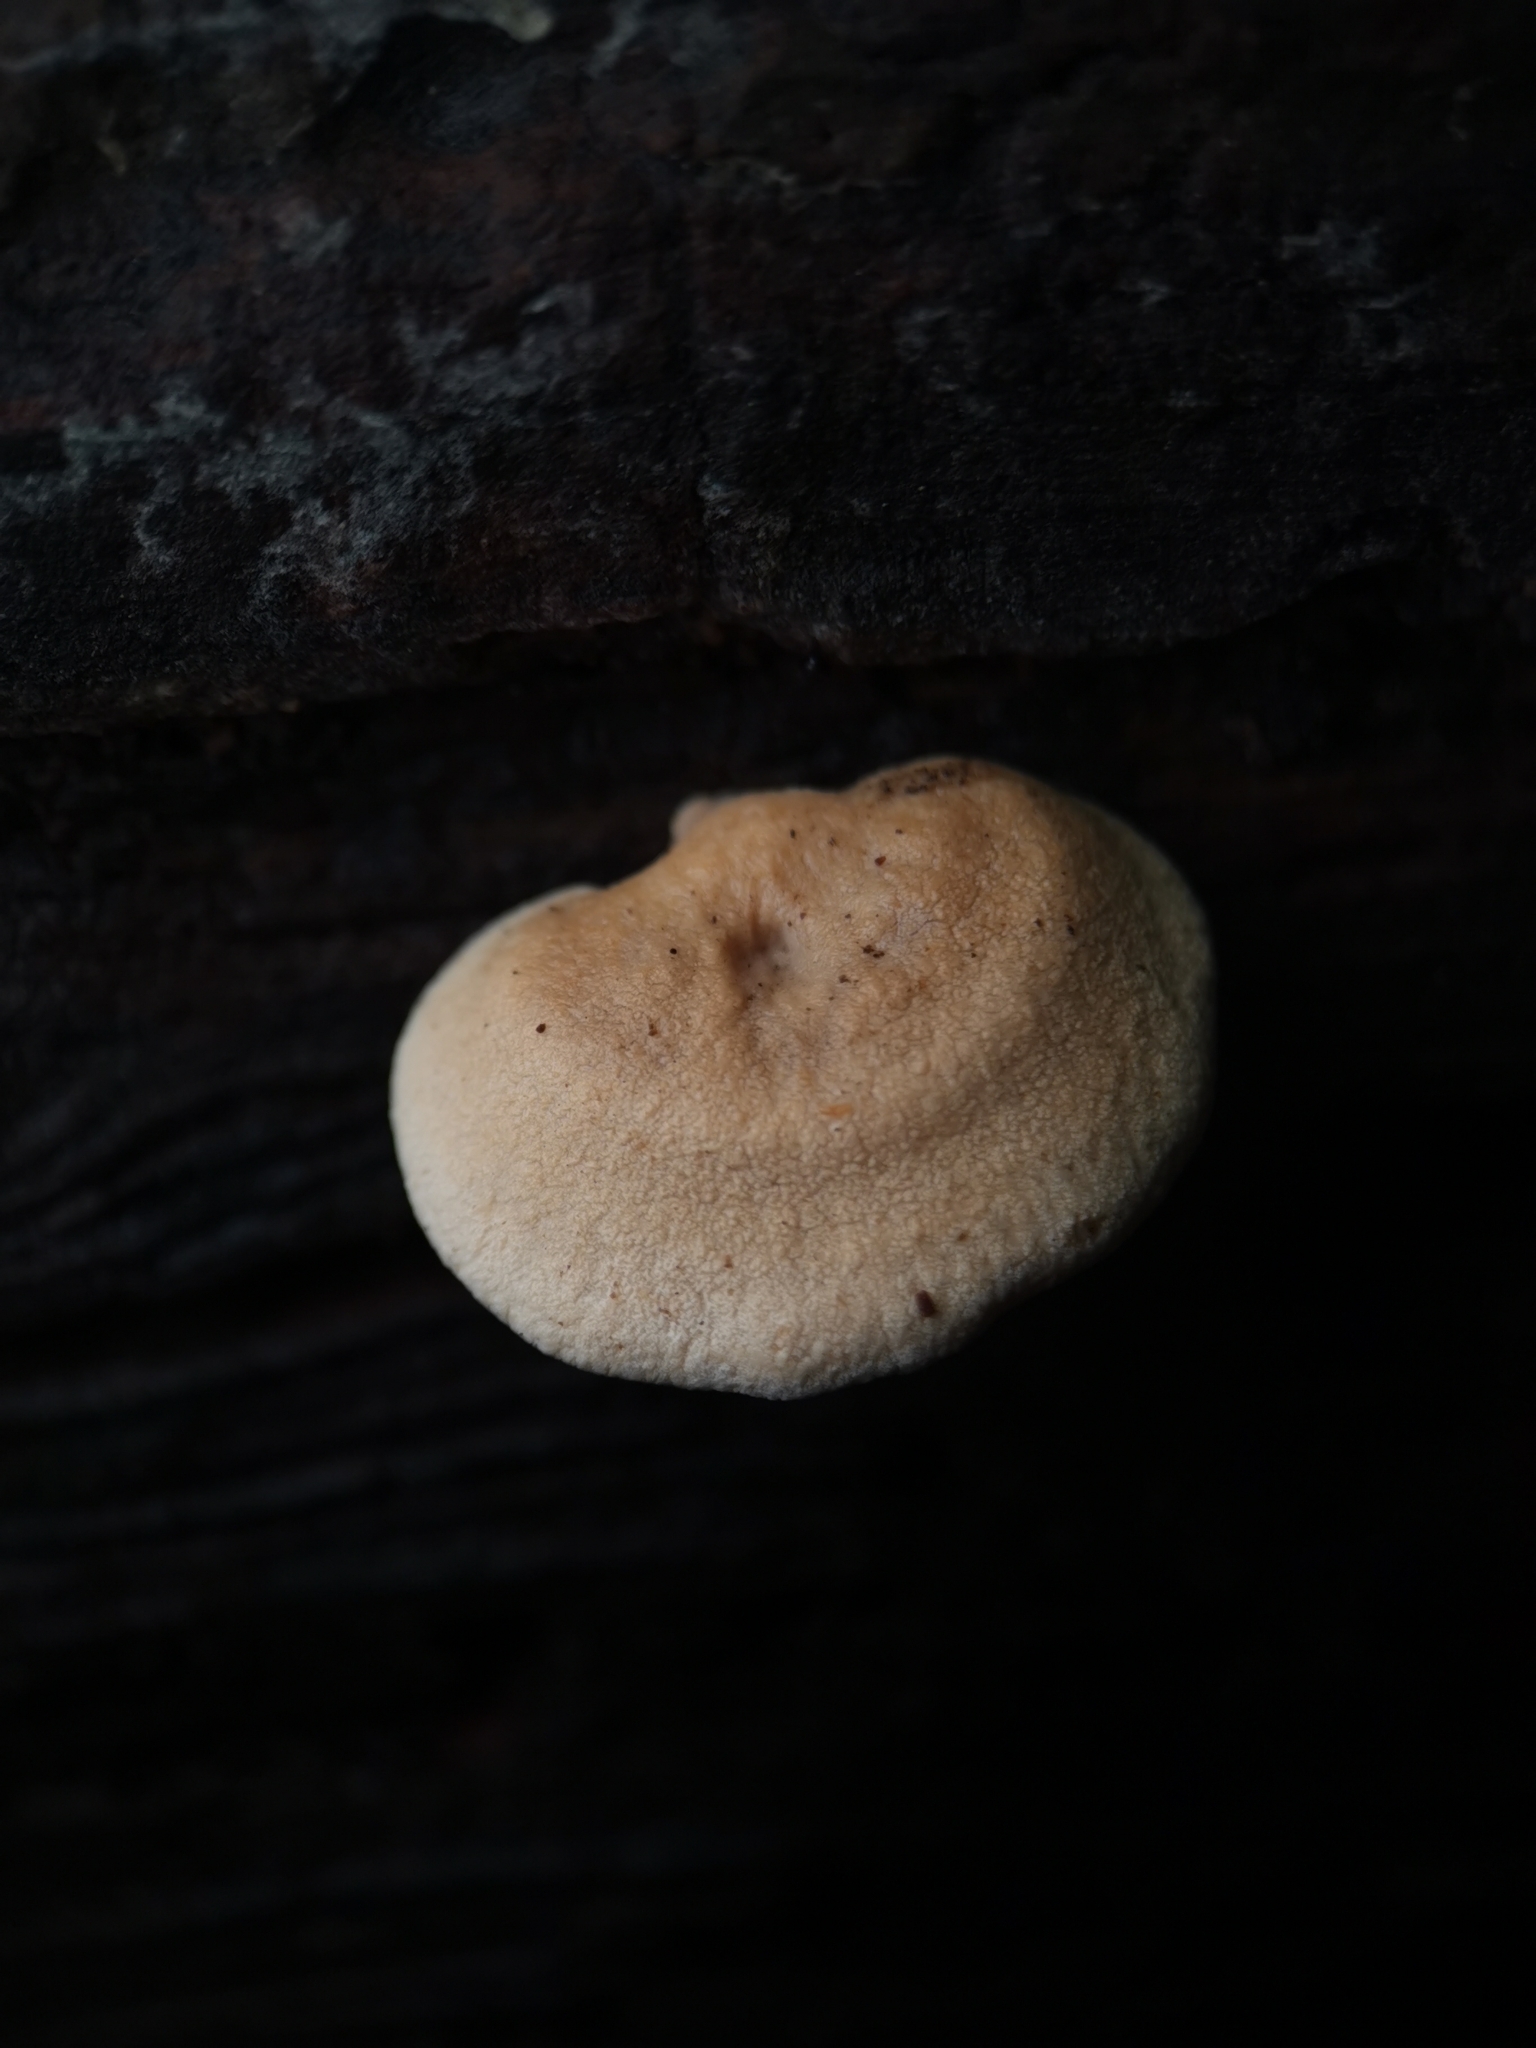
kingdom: Fungi
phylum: Basidiomycota
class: Agaricomycetes
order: Agaricales
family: Mycenaceae
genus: Panellus
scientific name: Panellus stipticus
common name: Bitter oysterling
